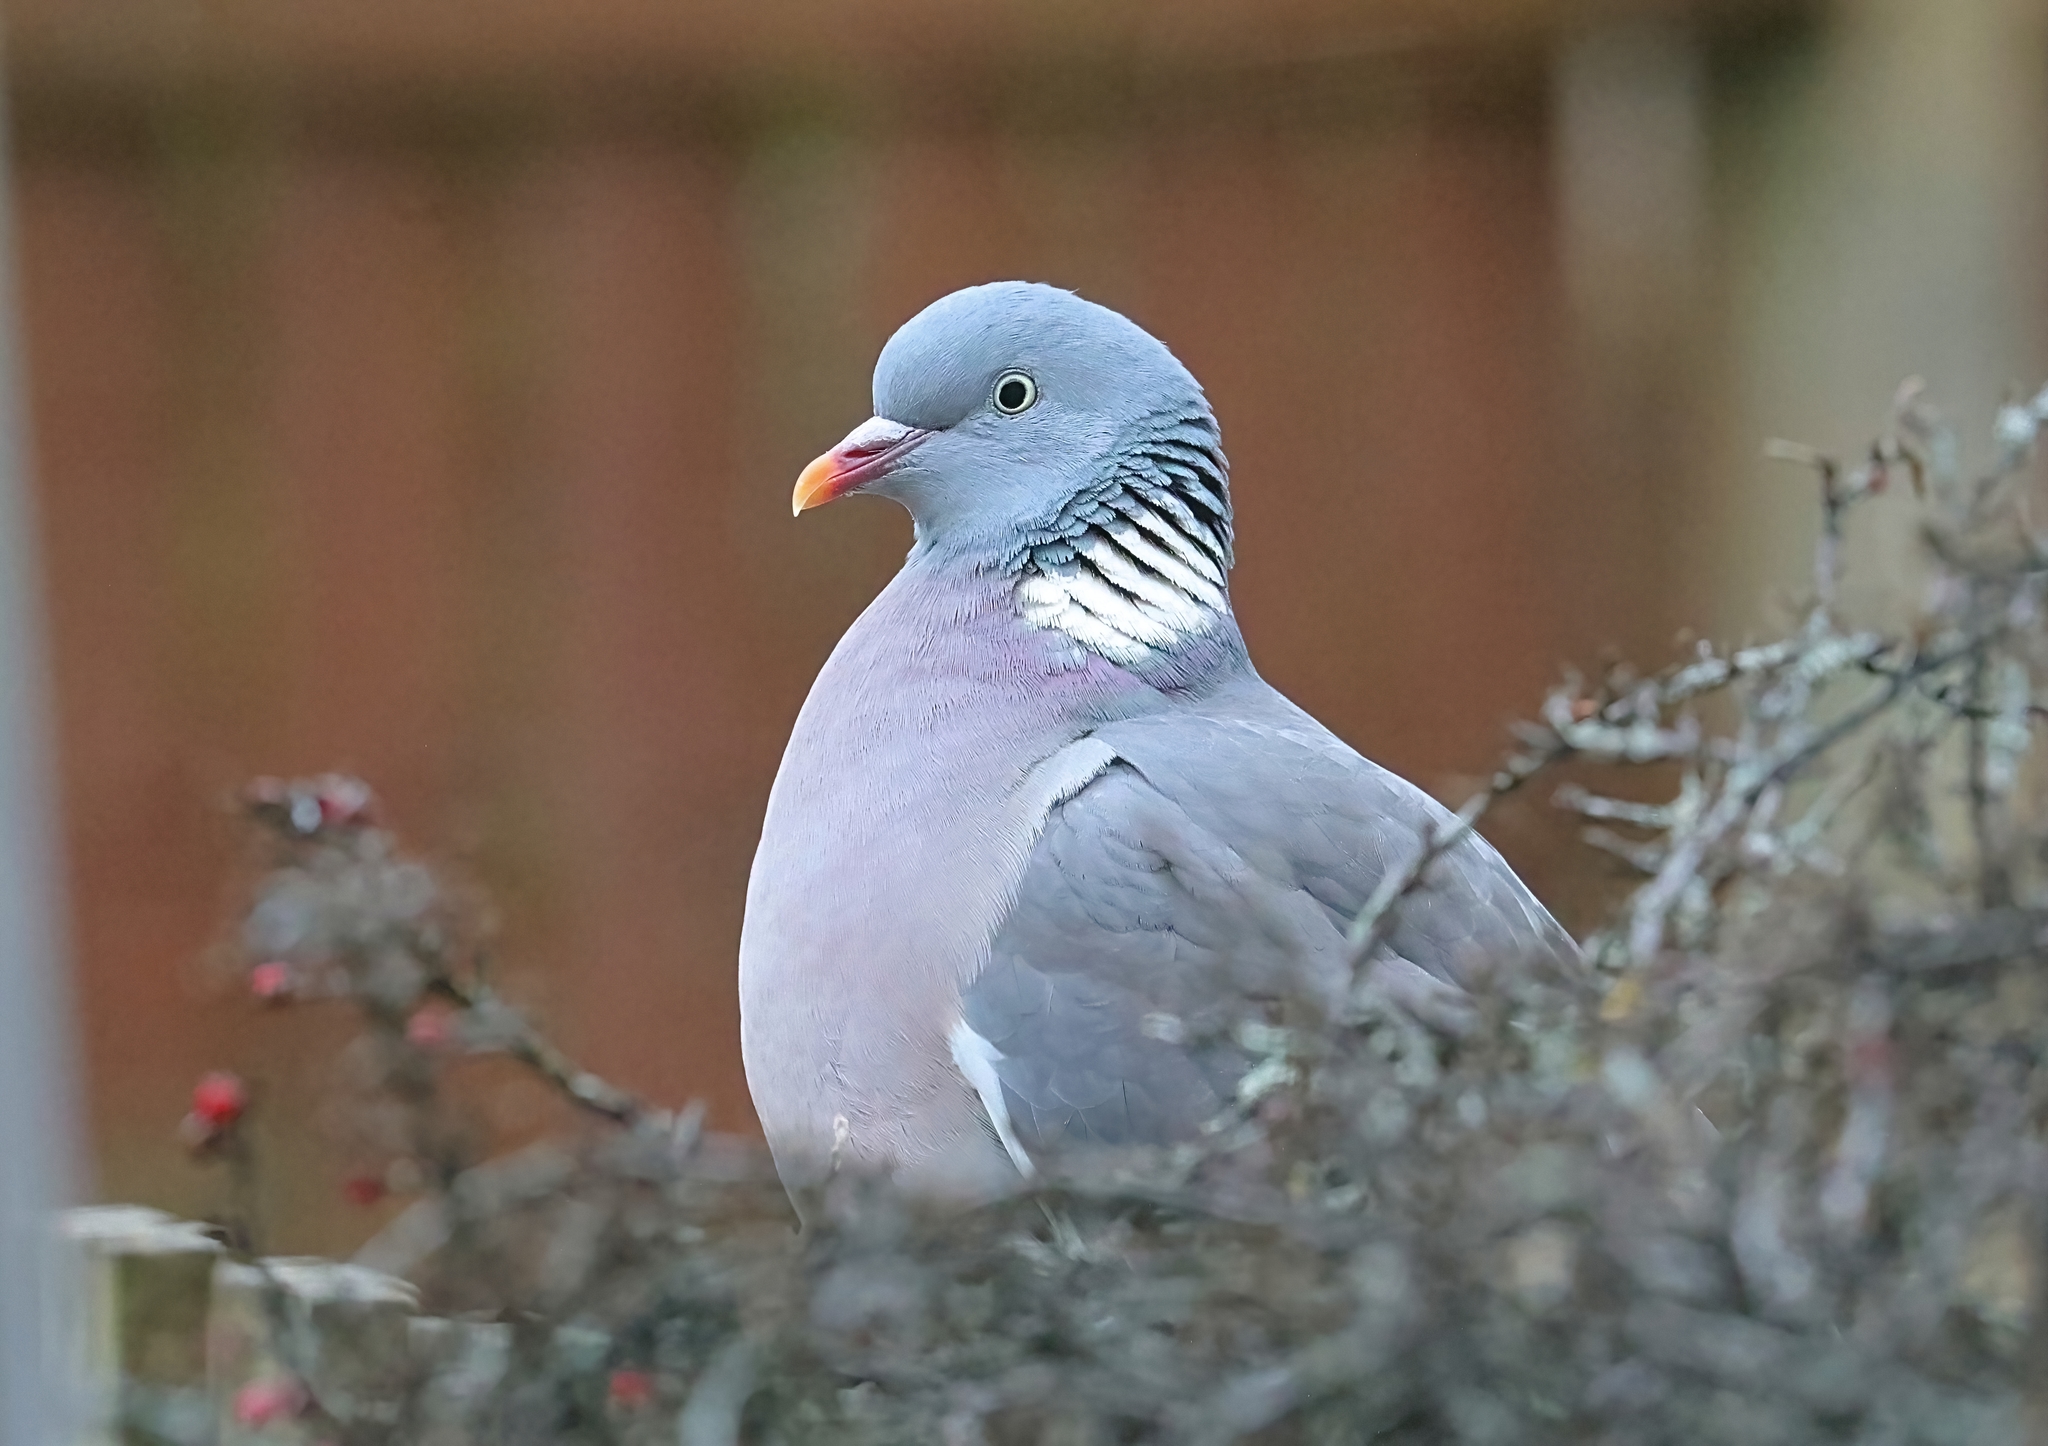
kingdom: Animalia
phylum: Chordata
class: Aves
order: Columbiformes
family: Columbidae
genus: Columba
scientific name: Columba palumbus
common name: Common wood pigeon
